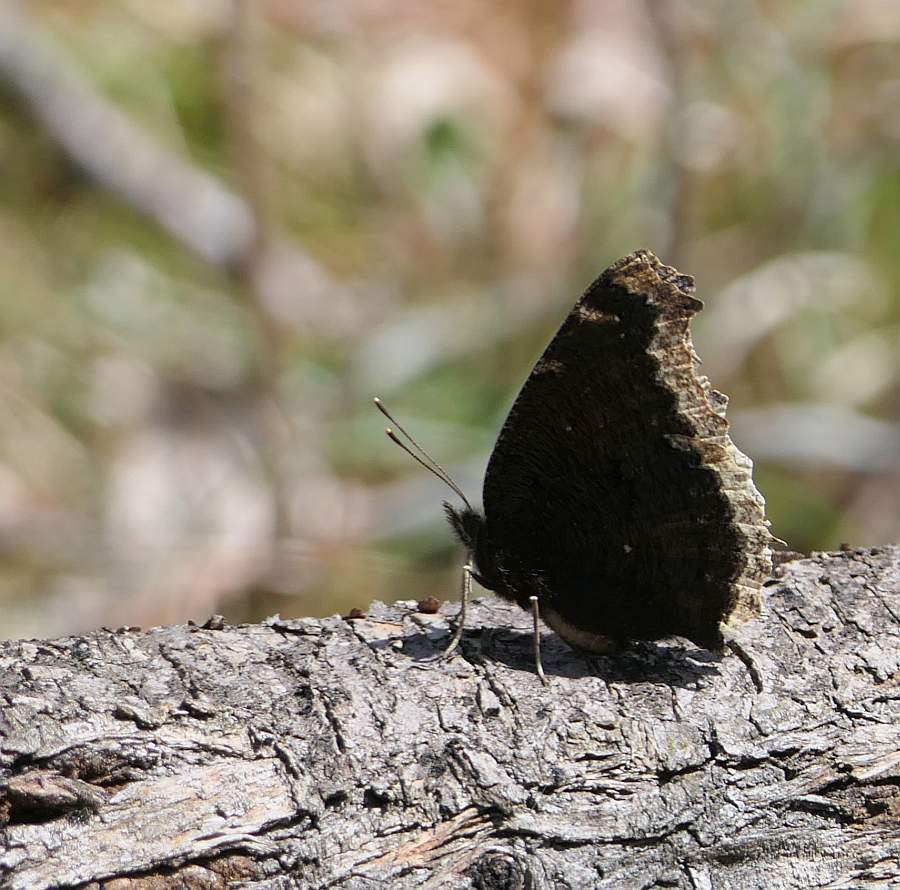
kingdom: Animalia
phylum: Arthropoda
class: Insecta
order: Lepidoptera
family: Nymphalidae
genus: Nymphalis
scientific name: Nymphalis antiopa
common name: Camberwell beauty
